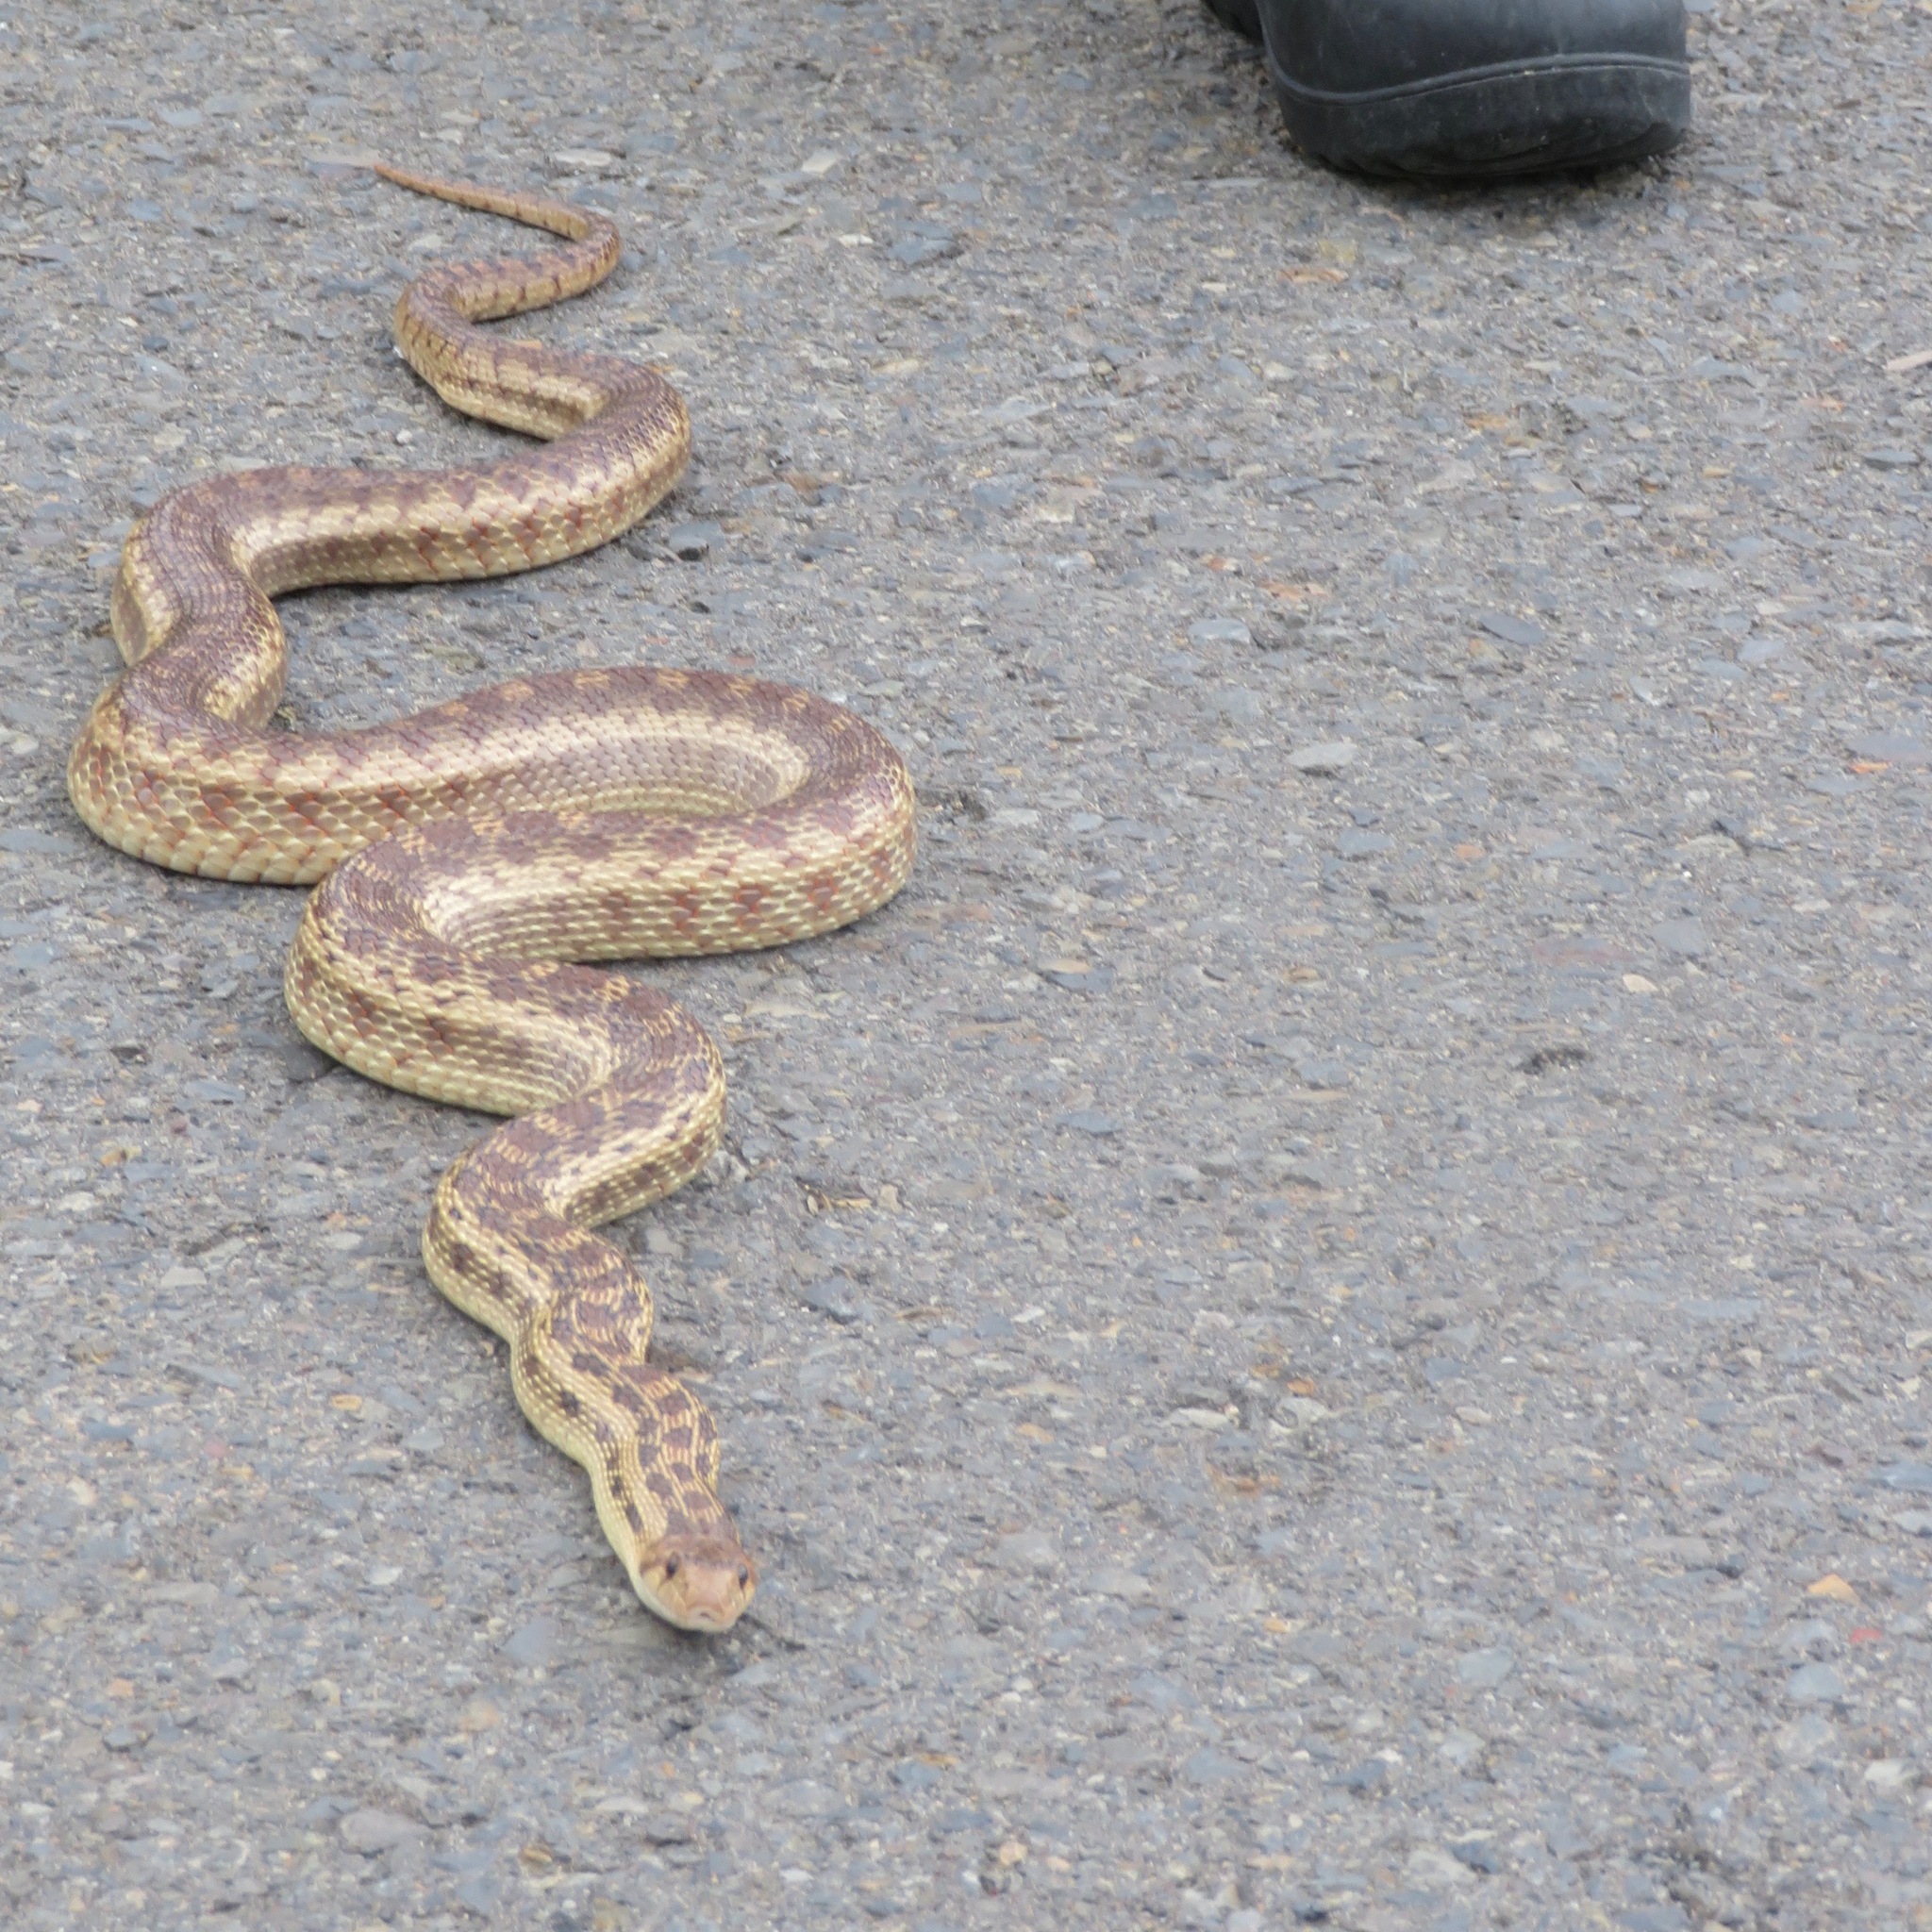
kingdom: Animalia
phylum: Chordata
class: Squamata
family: Colubridae
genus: Pituophis
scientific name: Pituophis catenifer
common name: Gopher snake
